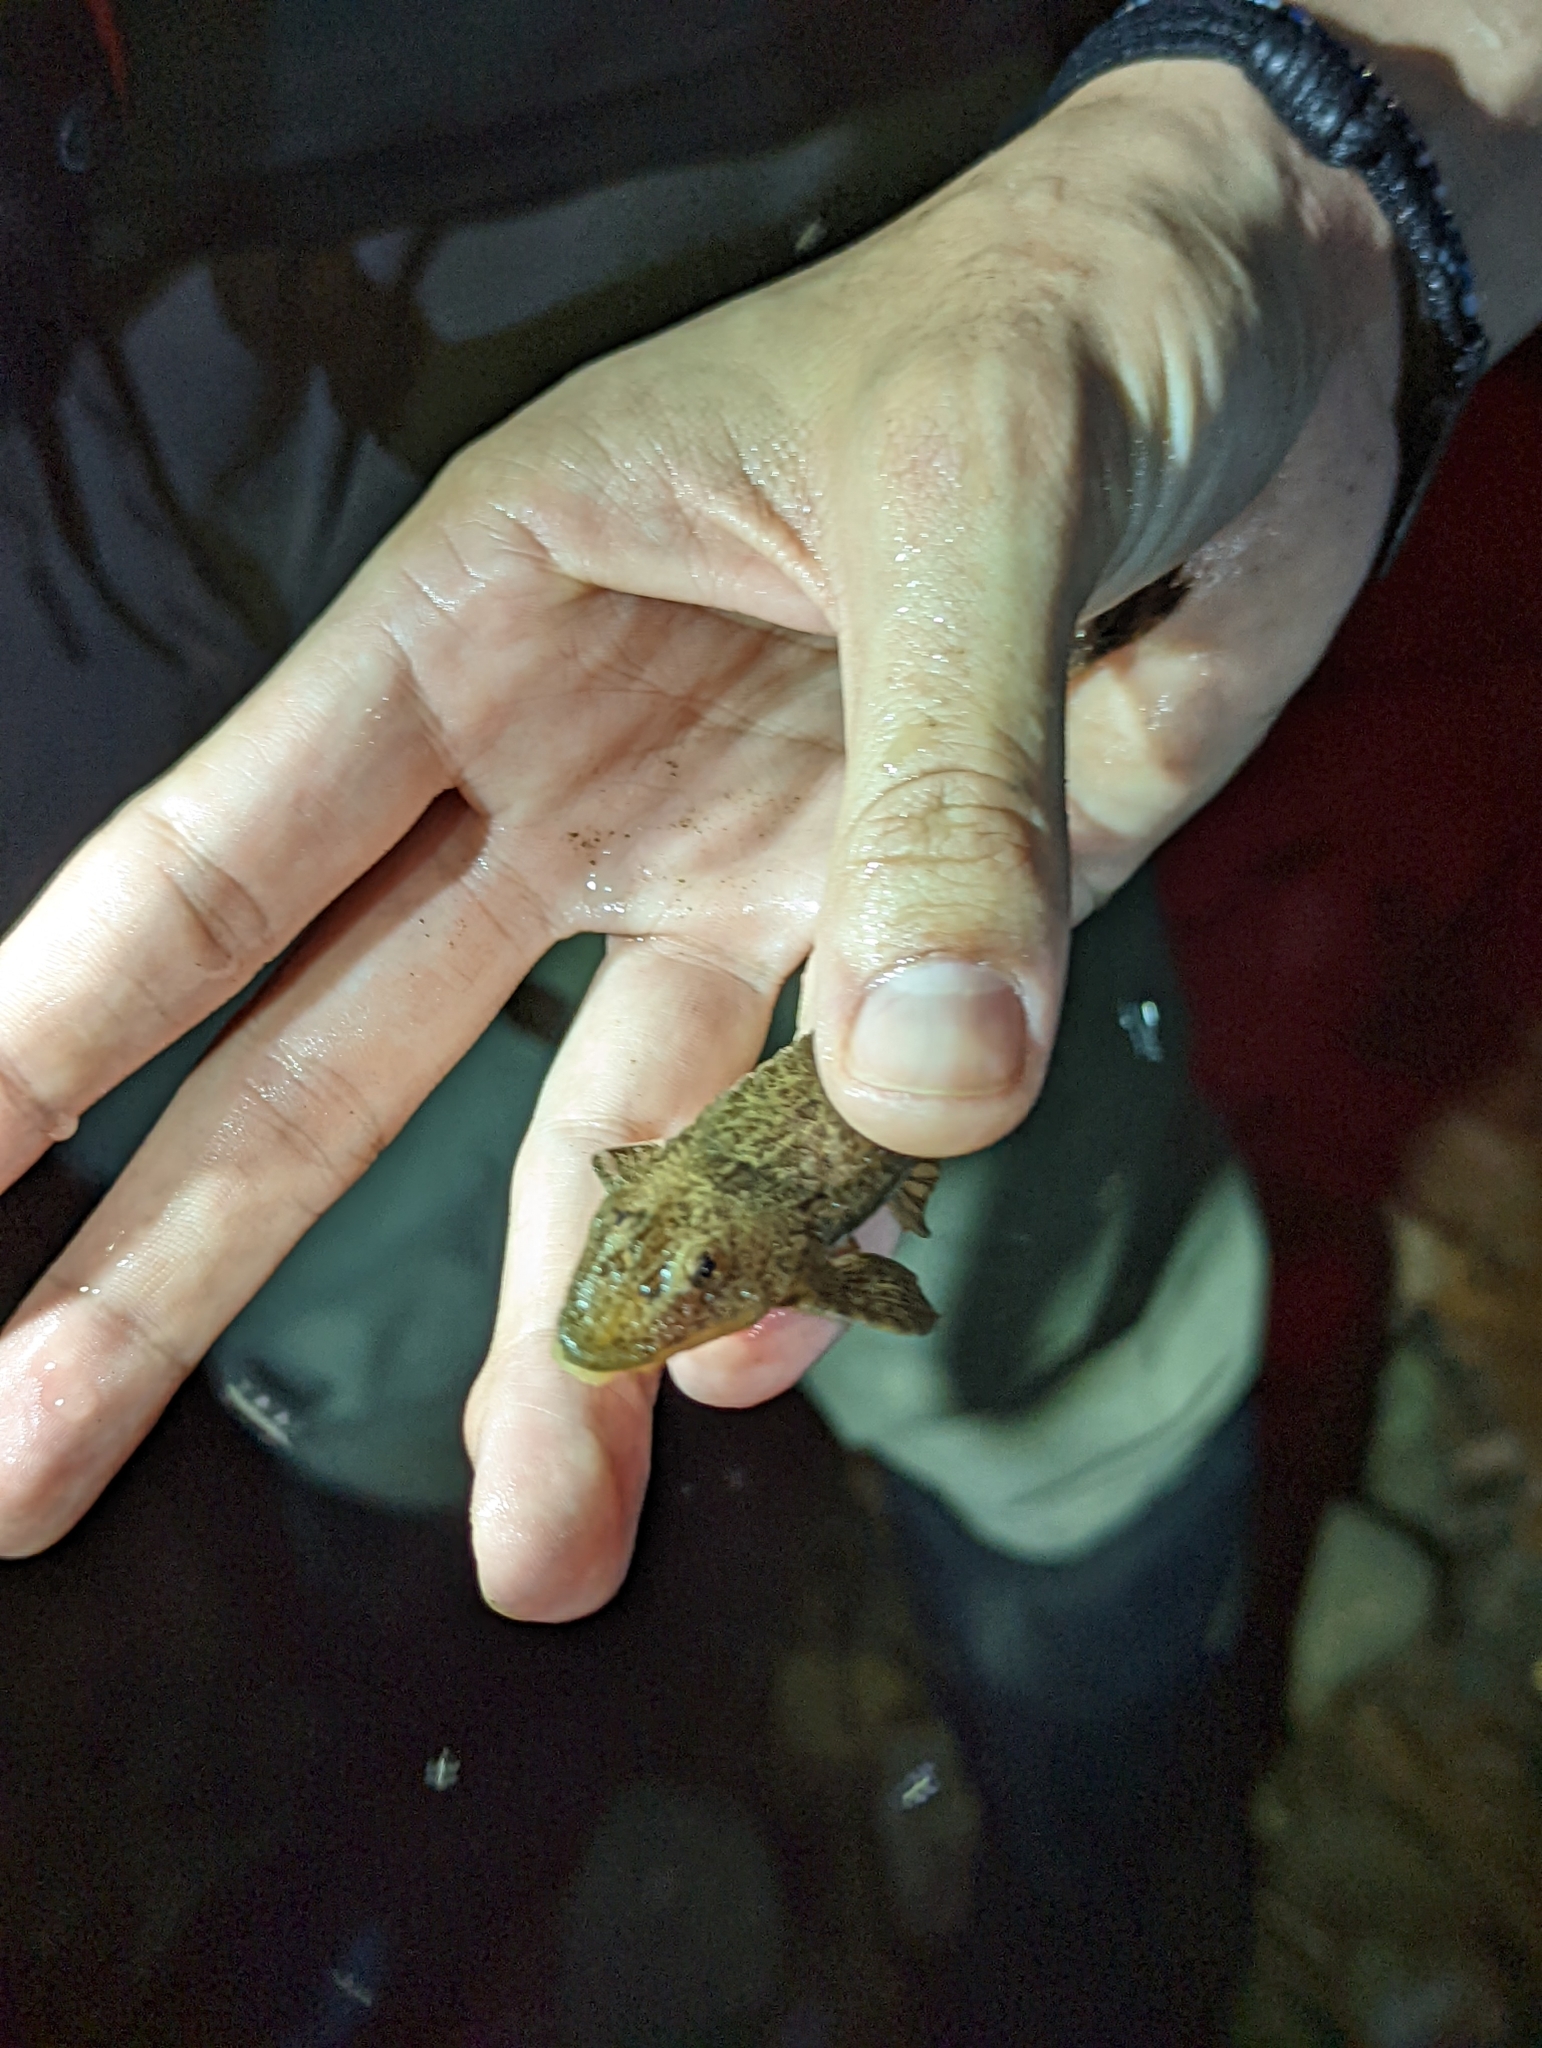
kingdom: Animalia
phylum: Chordata
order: Siluriformes
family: Loricariidae
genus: Fonchiiichthys
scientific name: Fonchiiichthys uracanthus
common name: Armored catfish
